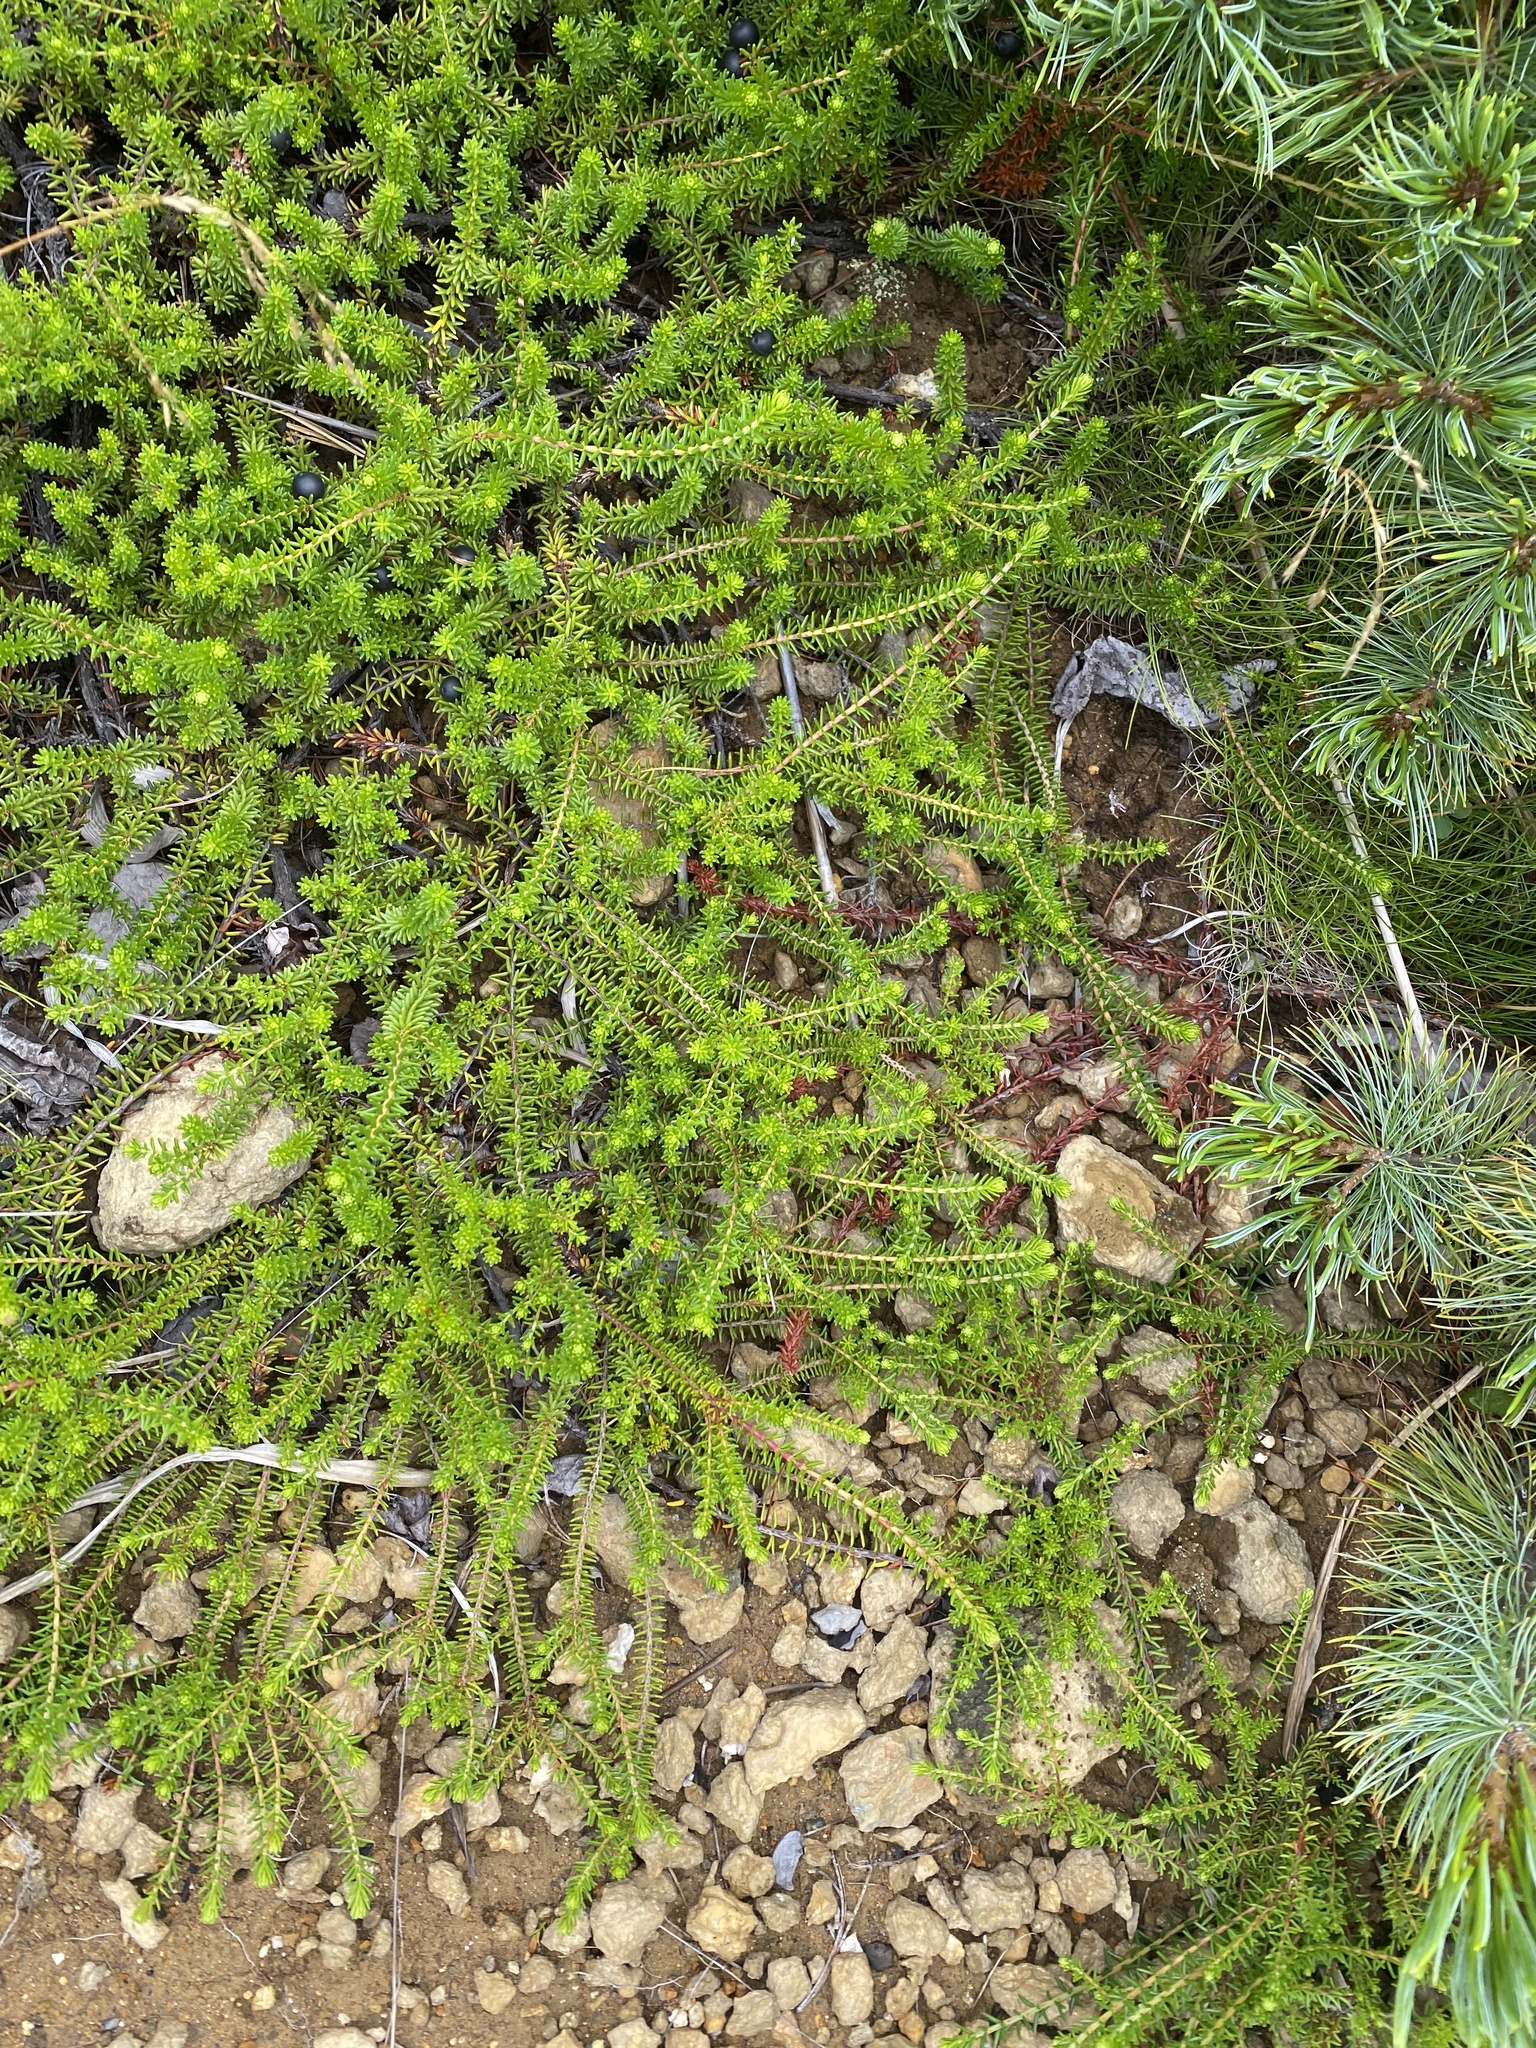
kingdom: Plantae
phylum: Tracheophyta
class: Magnoliopsida
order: Ericales
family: Ericaceae
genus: Empetrum
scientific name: Empetrum nigrum
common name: Black crowberry
